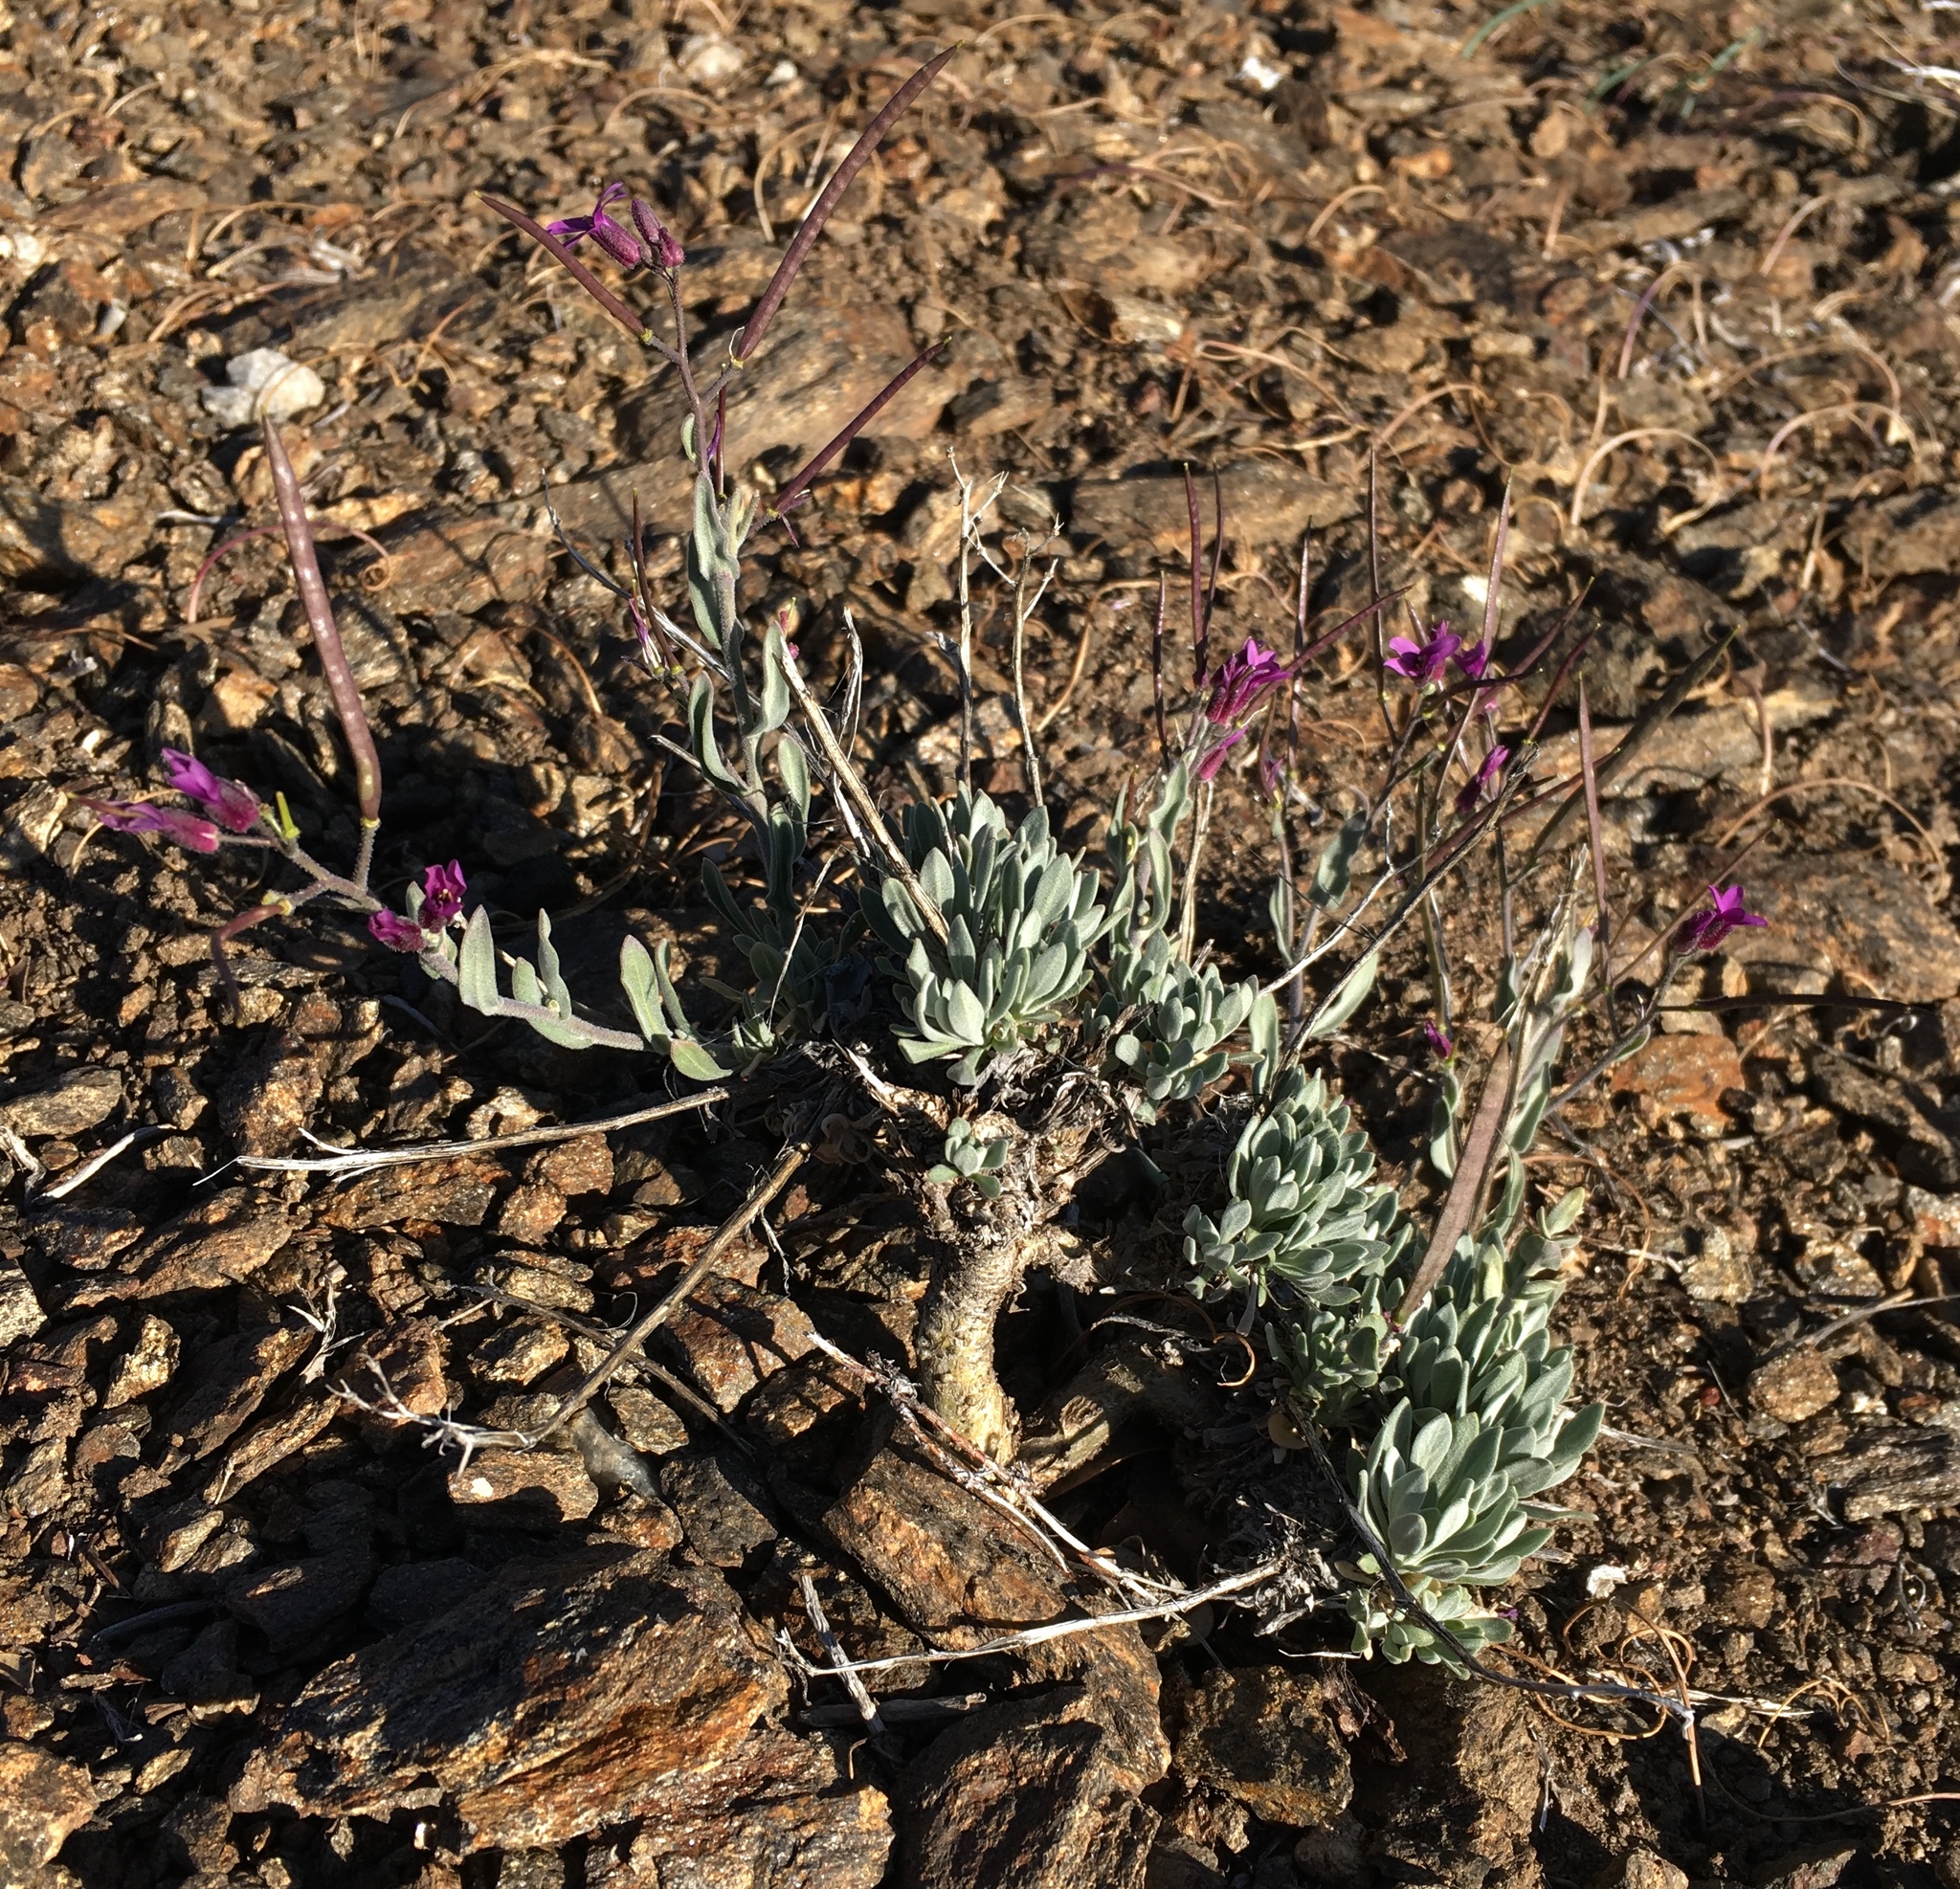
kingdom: Plantae
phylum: Tracheophyta
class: Magnoliopsida
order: Brassicales
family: Brassicaceae
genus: Boechera
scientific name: Boechera johnstonii
